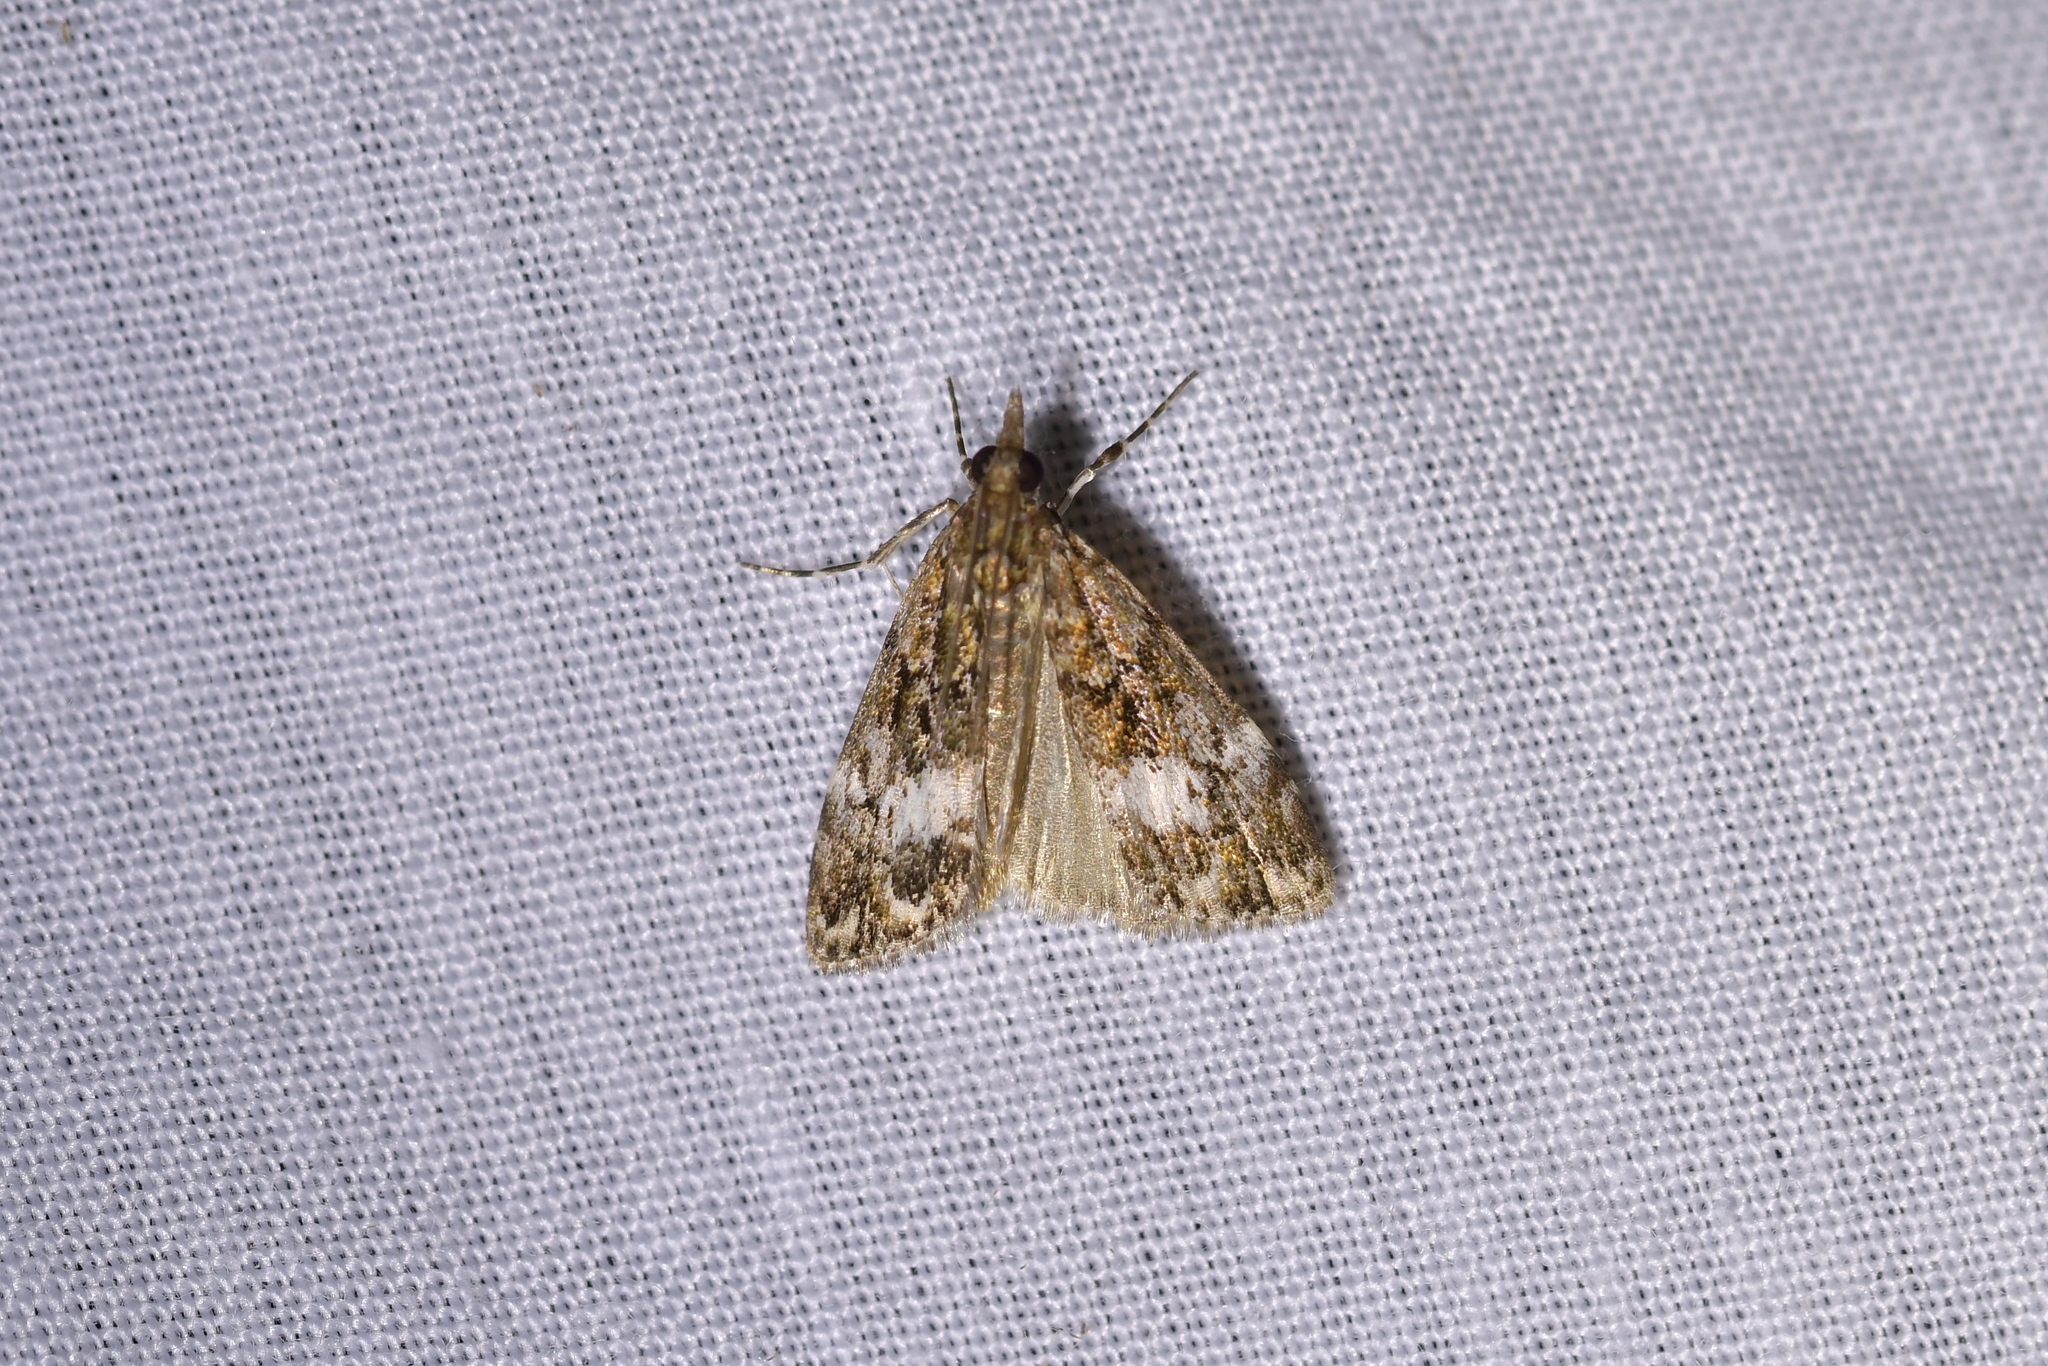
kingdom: Animalia
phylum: Arthropoda
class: Insecta
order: Lepidoptera
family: Crambidae
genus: Scoparia
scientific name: Scoparia minusculalis
